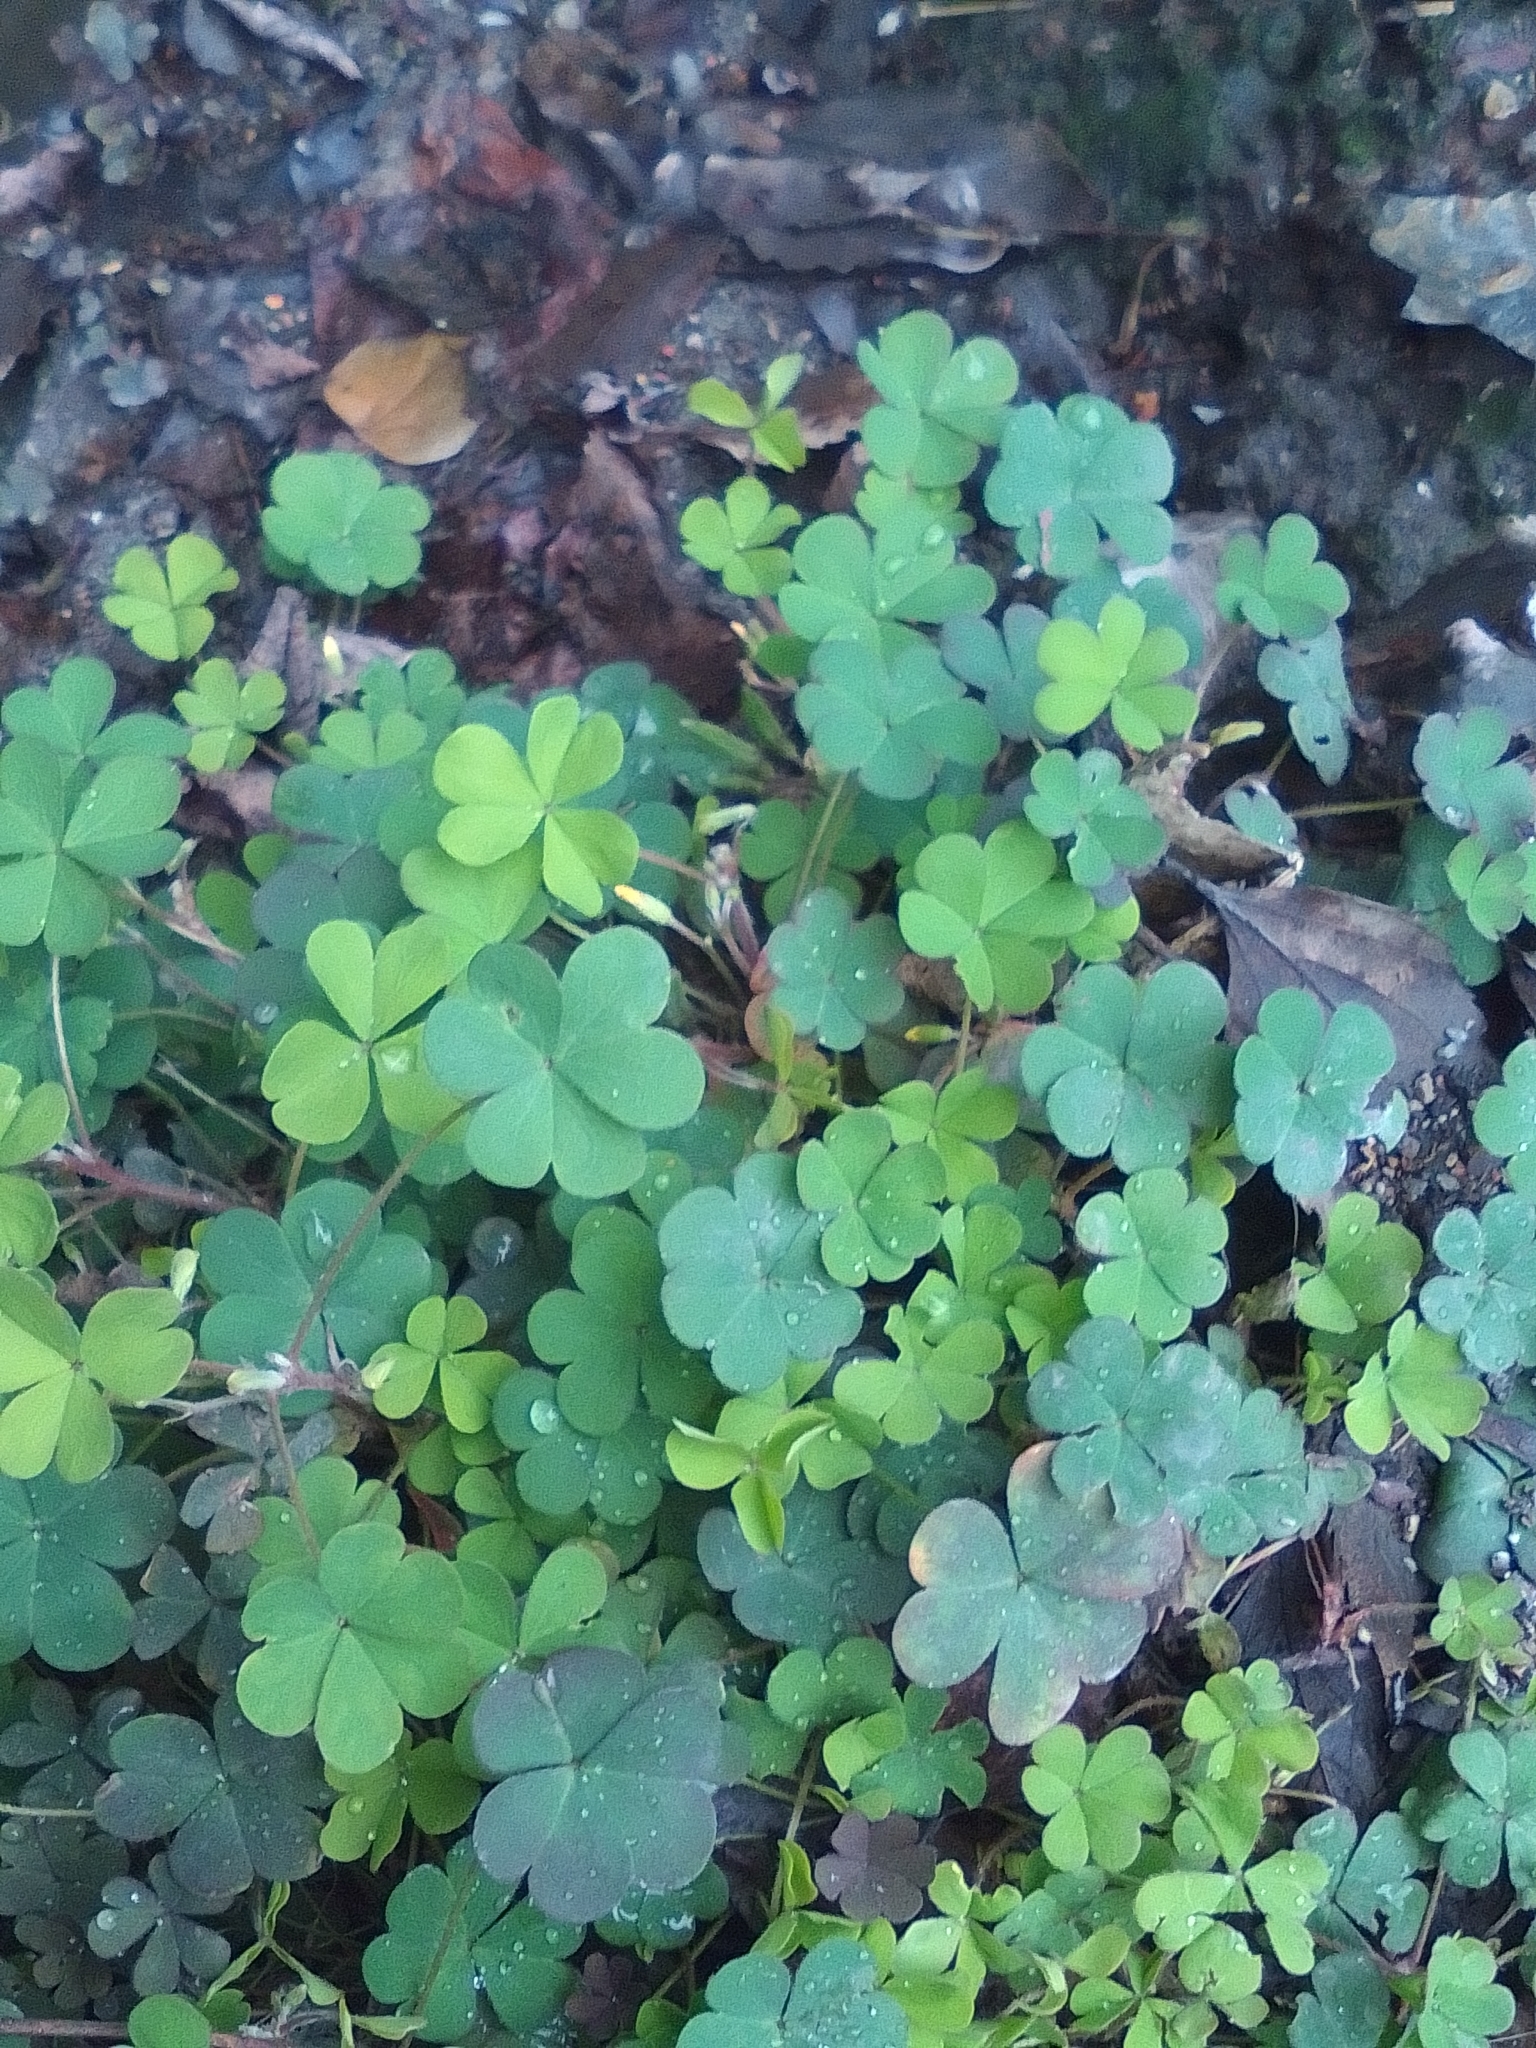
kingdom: Plantae
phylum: Tracheophyta
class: Magnoliopsida
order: Oxalidales
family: Oxalidaceae
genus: Oxalis
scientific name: Oxalis corniculata
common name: Procumbent yellow-sorrel
